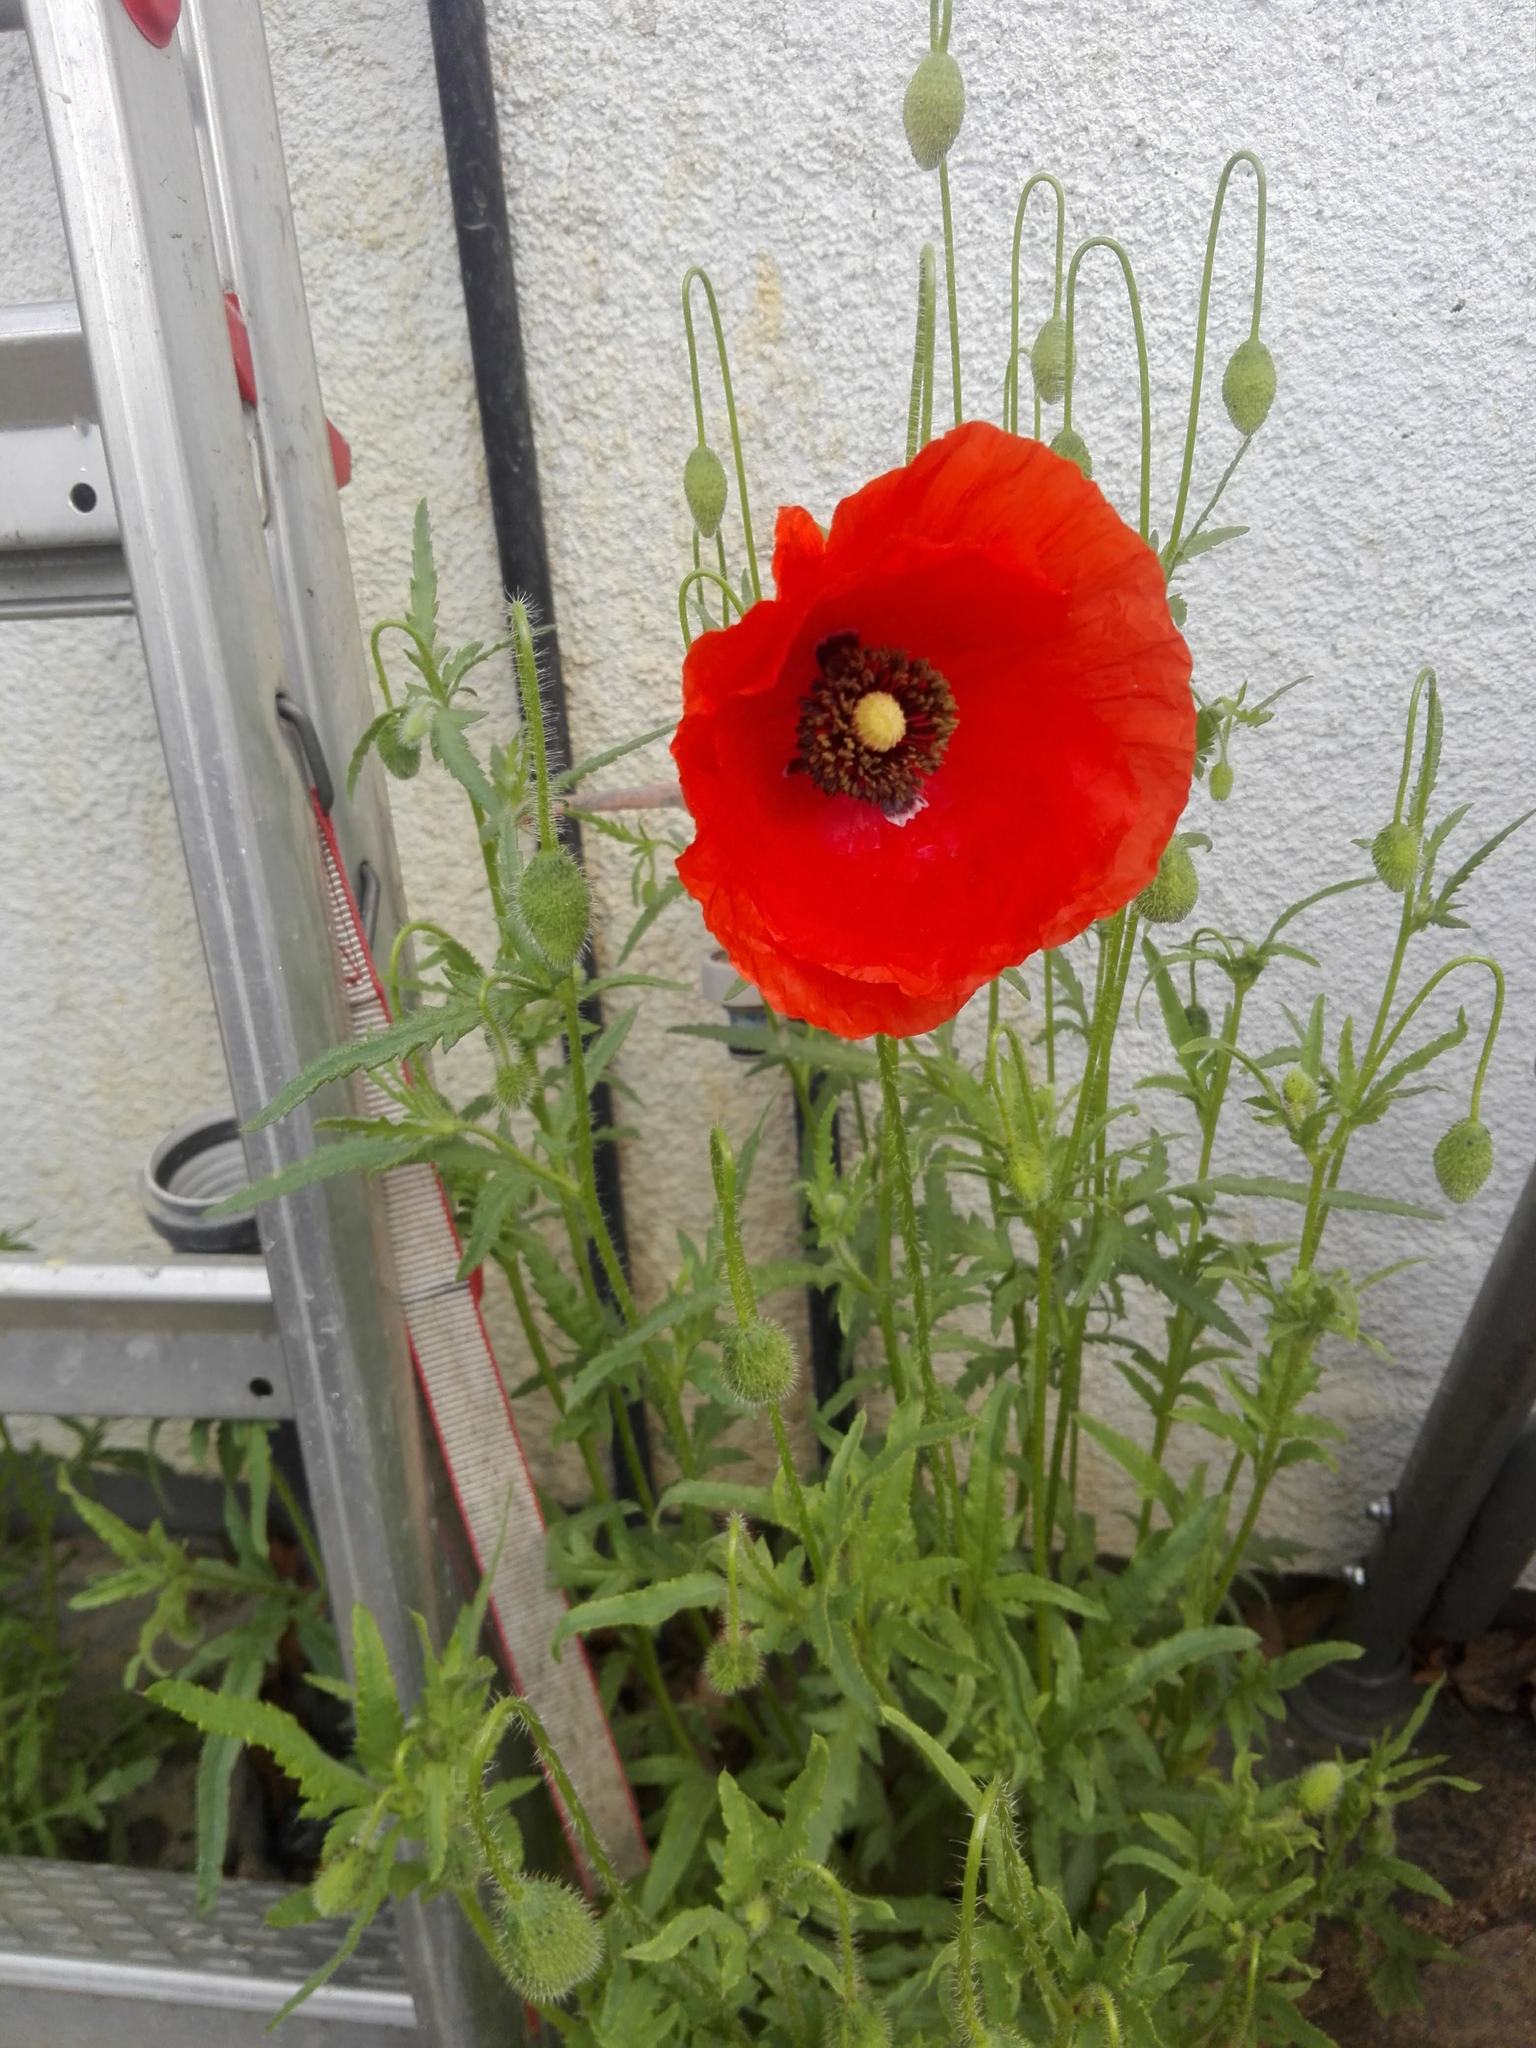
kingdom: Plantae
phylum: Tracheophyta
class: Magnoliopsida
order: Ranunculales
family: Papaveraceae
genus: Papaver
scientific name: Papaver rhoeas
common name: Corn poppy
